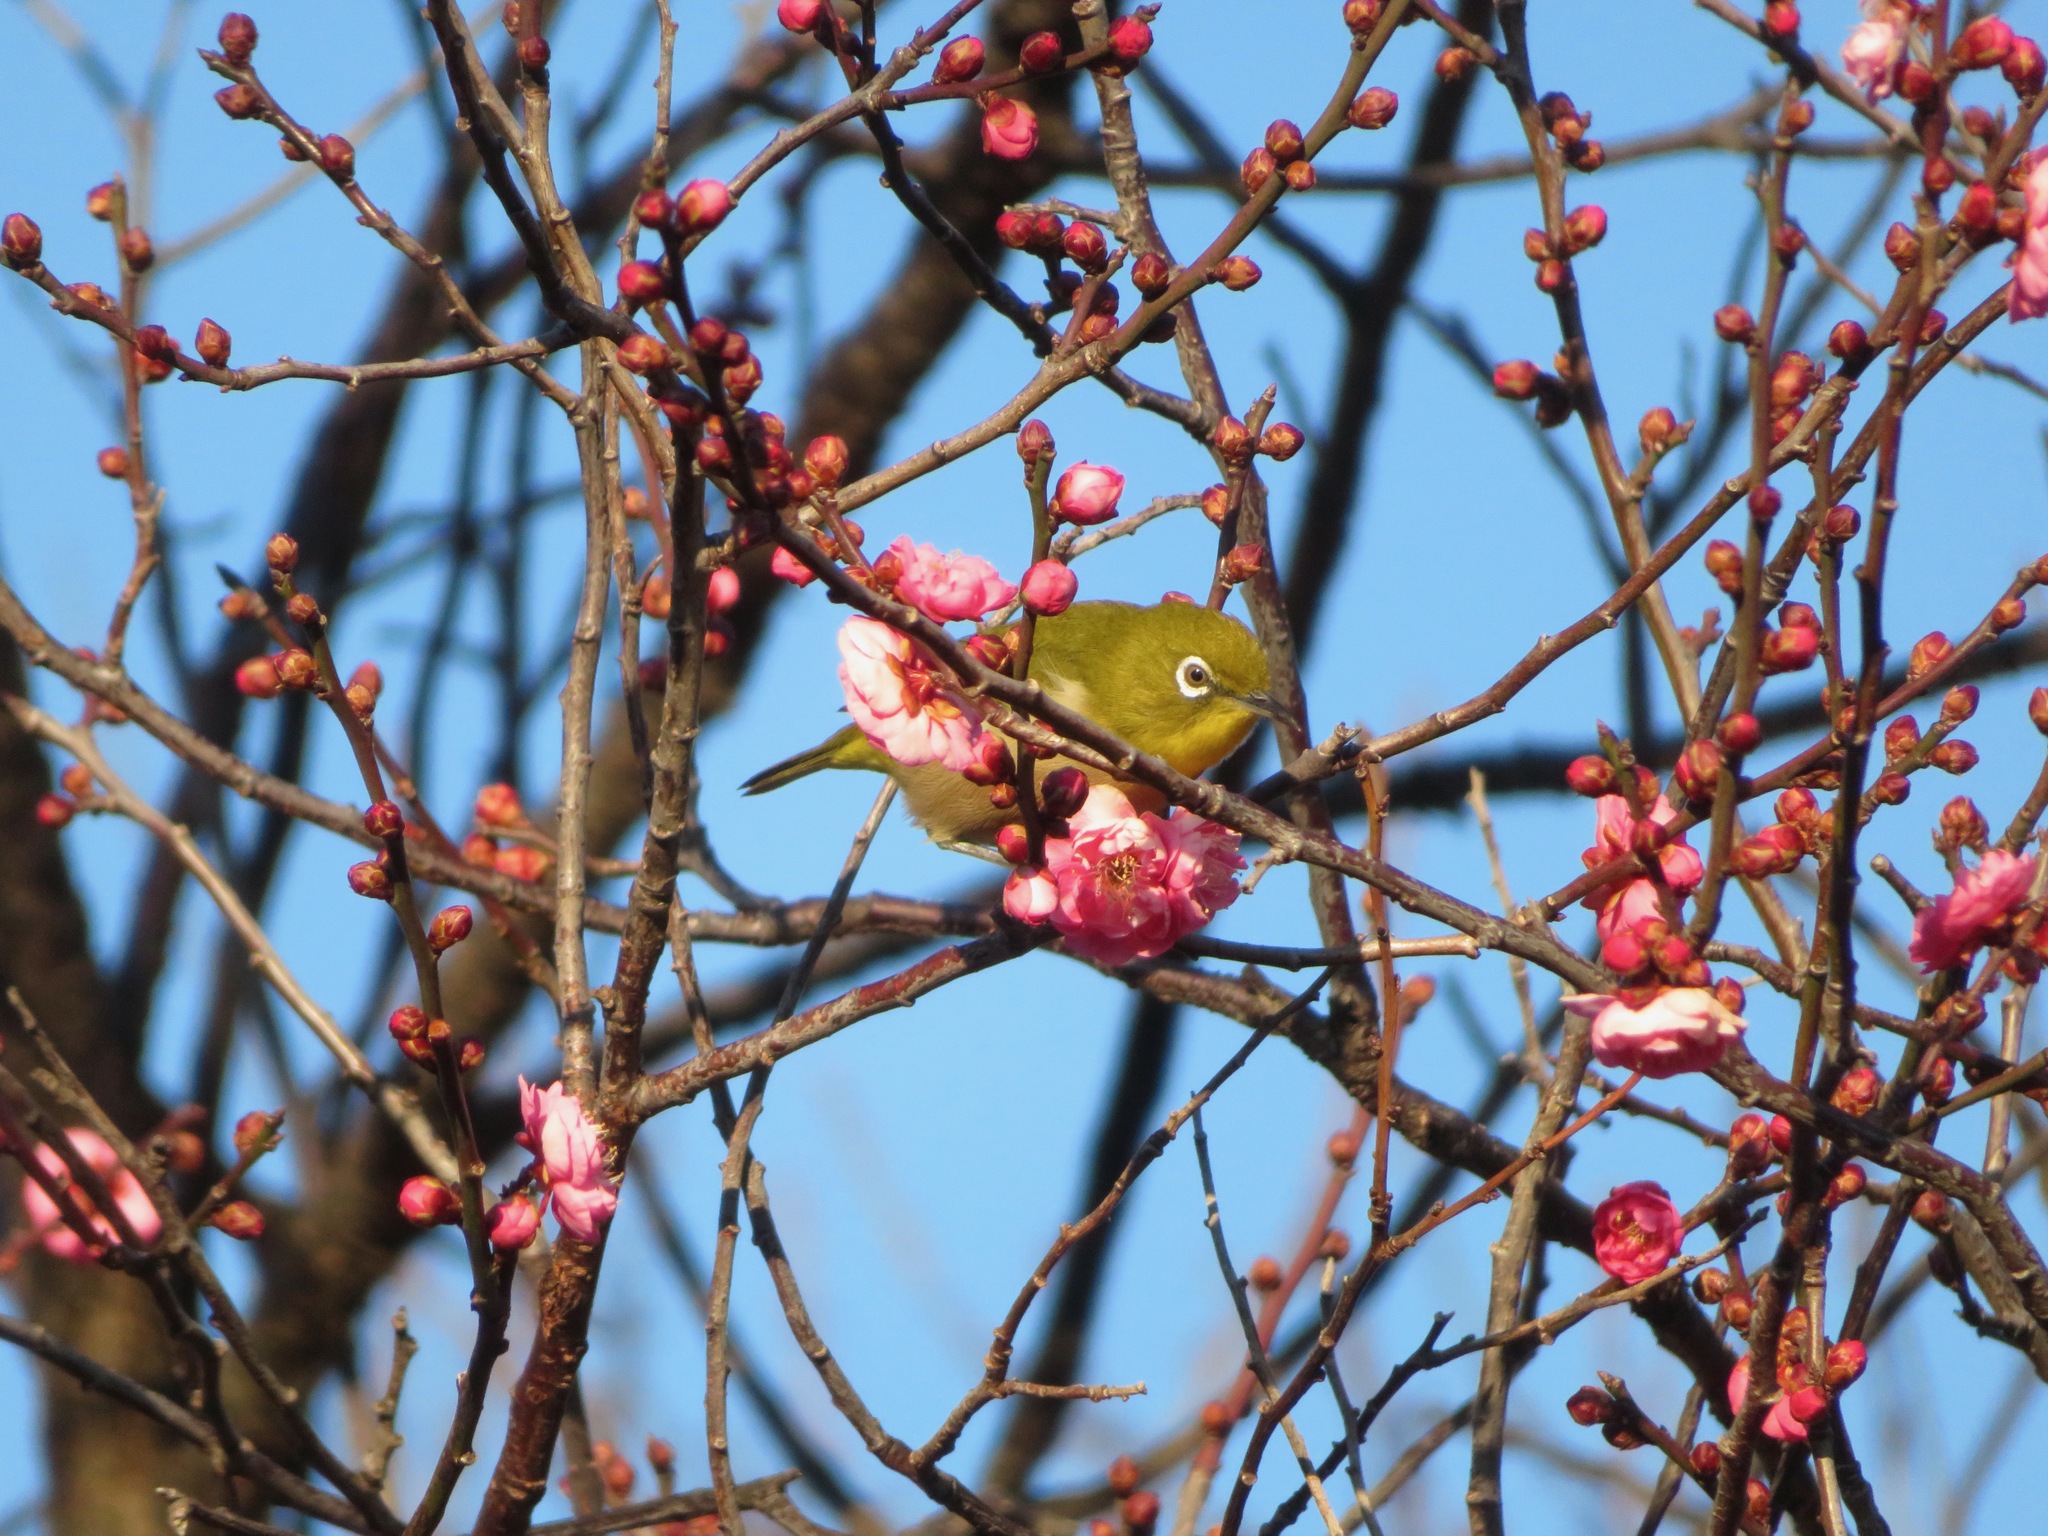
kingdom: Animalia
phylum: Chordata
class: Aves
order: Passeriformes
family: Zosteropidae
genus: Zosterops
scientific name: Zosterops japonicus
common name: Japanese white-eye
